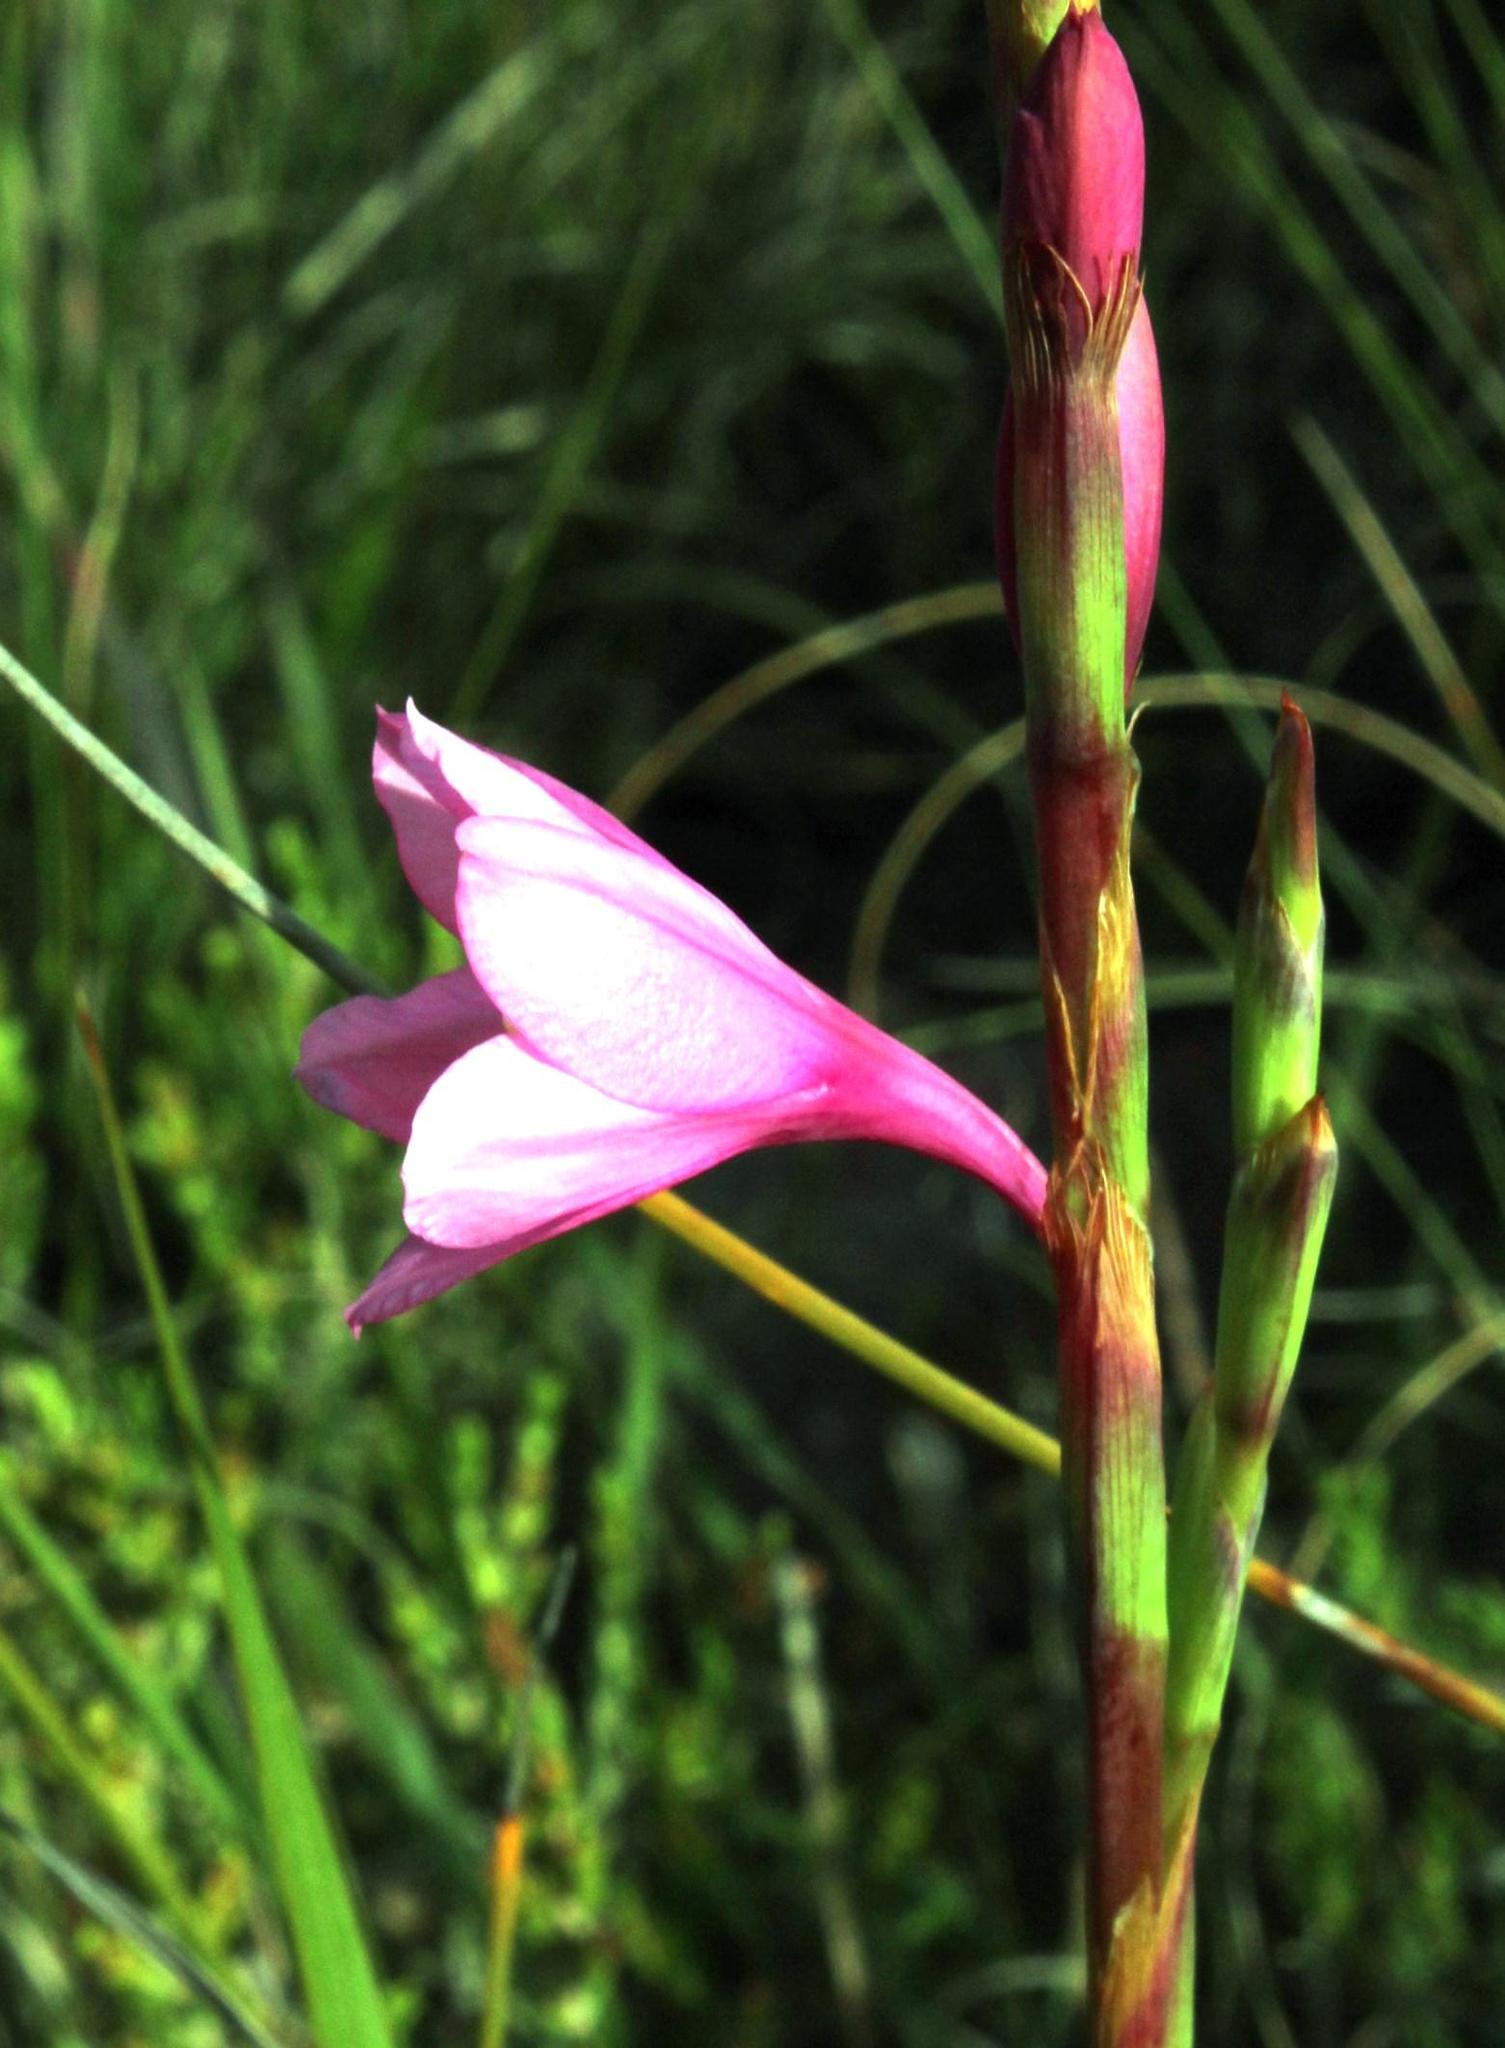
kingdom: Plantae
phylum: Tracheophyta
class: Liliopsida
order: Asparagales
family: Iridaceae
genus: Watsonia
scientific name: Watsonia laccata
